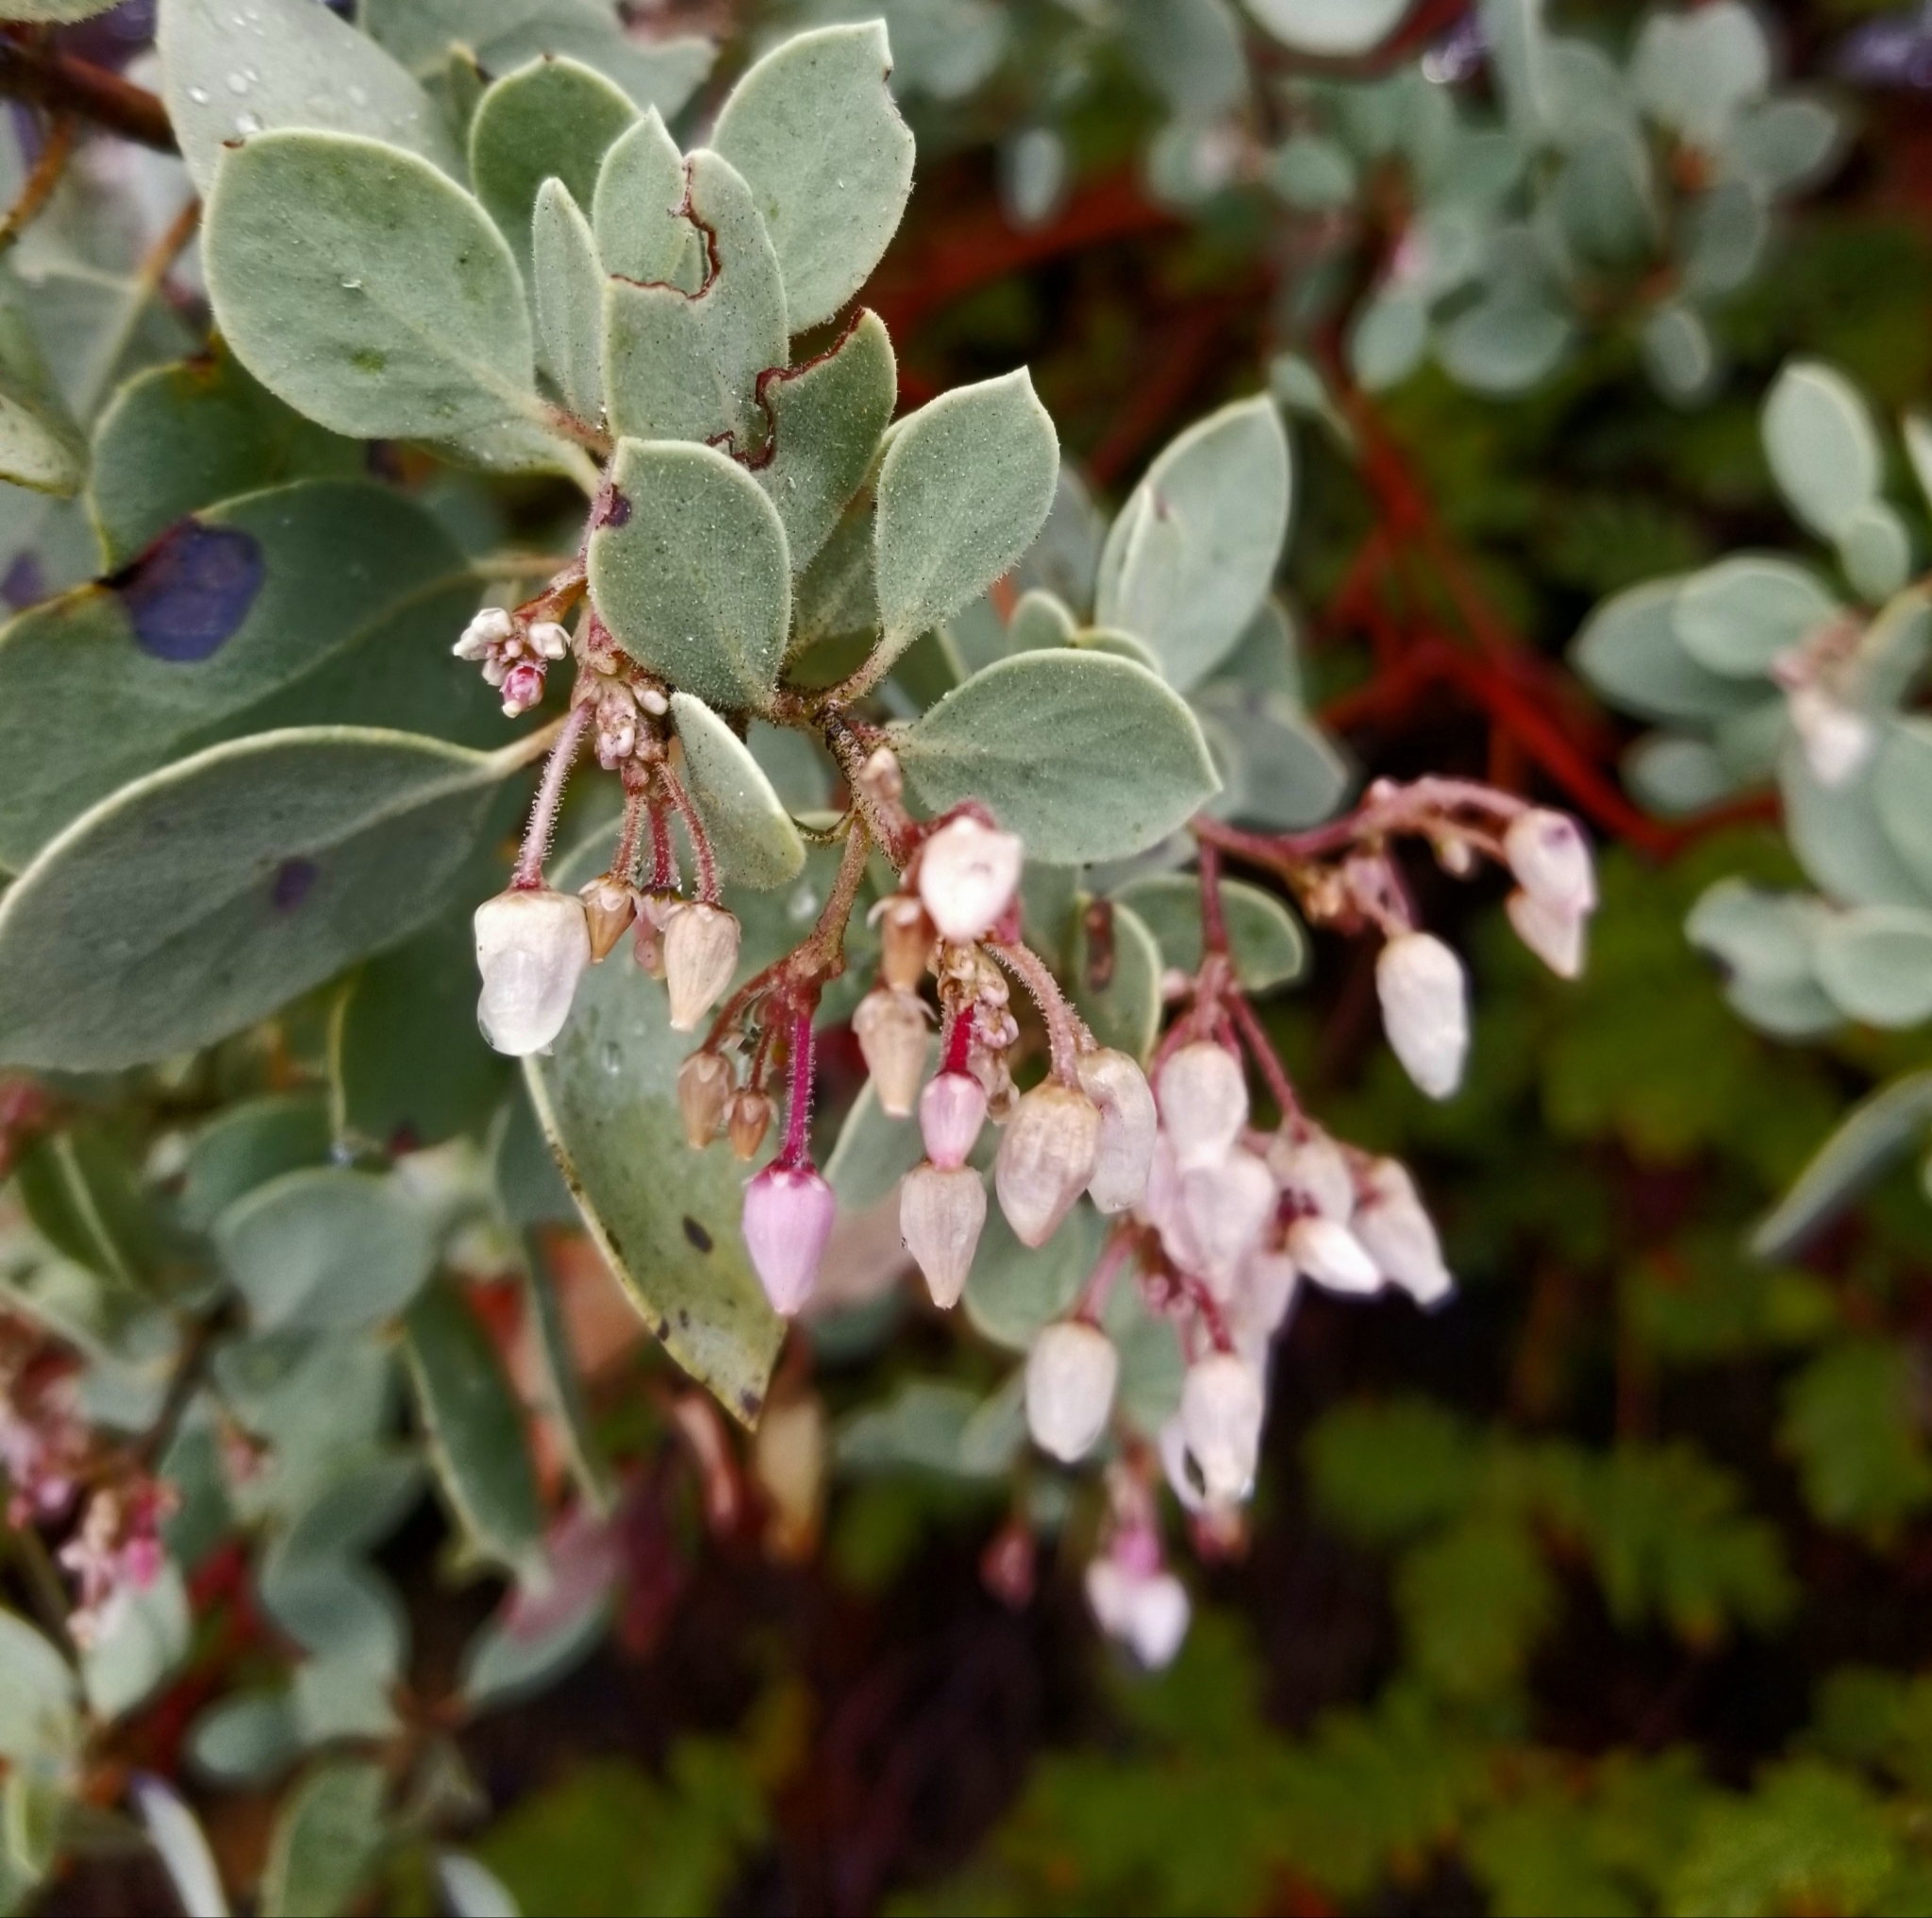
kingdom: Plantae
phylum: Tracheophyta
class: Magnoliopsida
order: Ericales
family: Ericaceae
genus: Arctostaphylos
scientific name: Arctostaphylos viscida
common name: White-leaf manzanita
